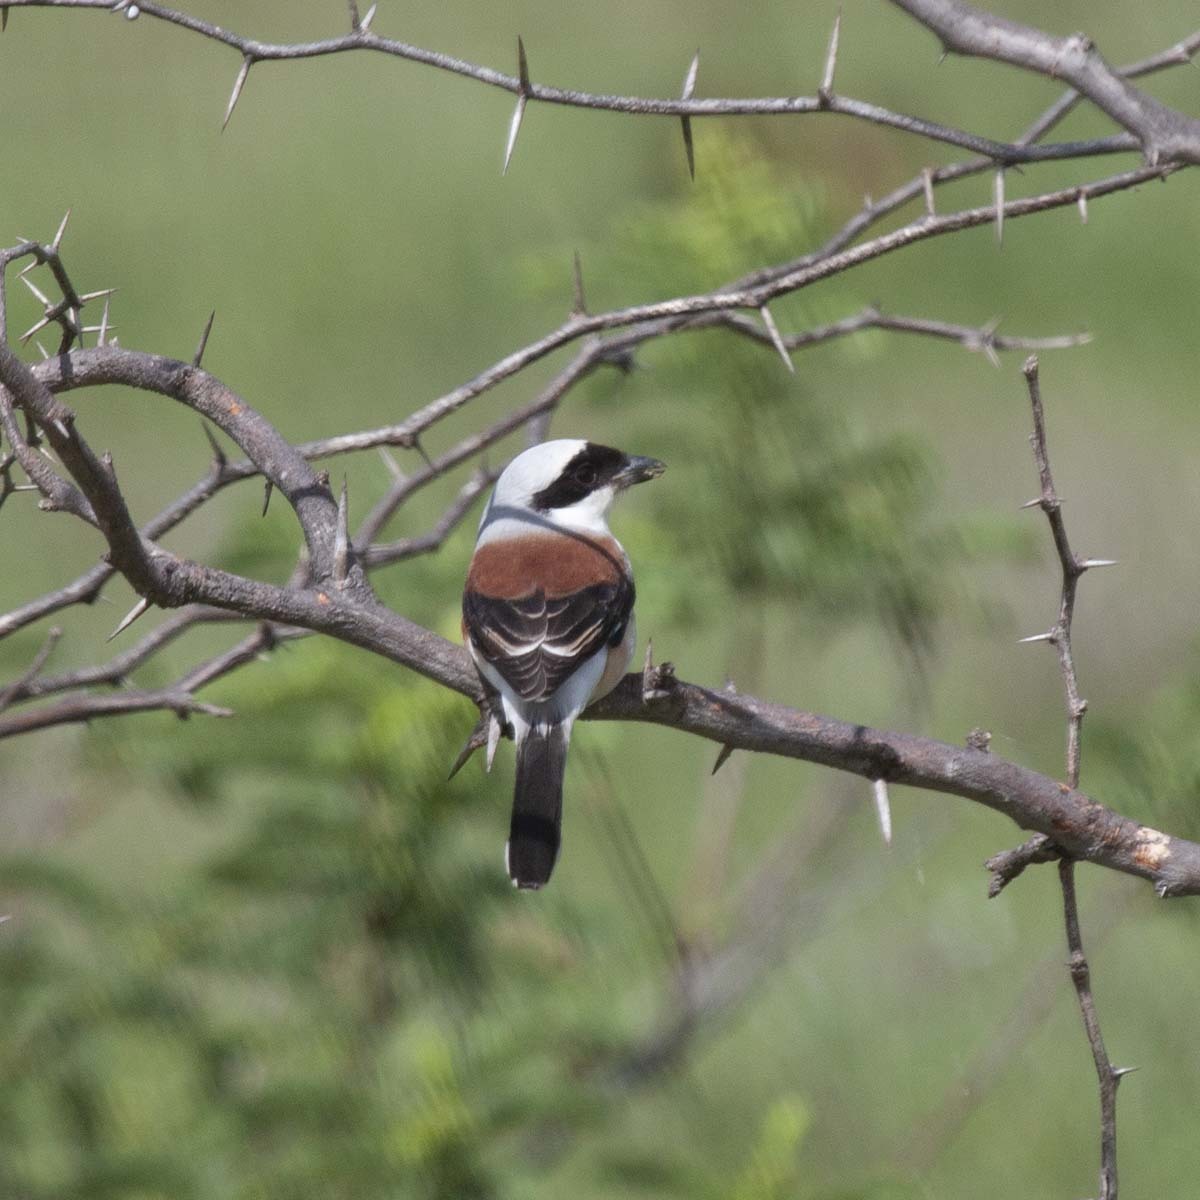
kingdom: Animalia
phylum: Chordata
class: Aves
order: Passeriformes
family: Laniidae
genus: Lanius
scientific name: Lanius vittatus
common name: Bay-backed shrike
